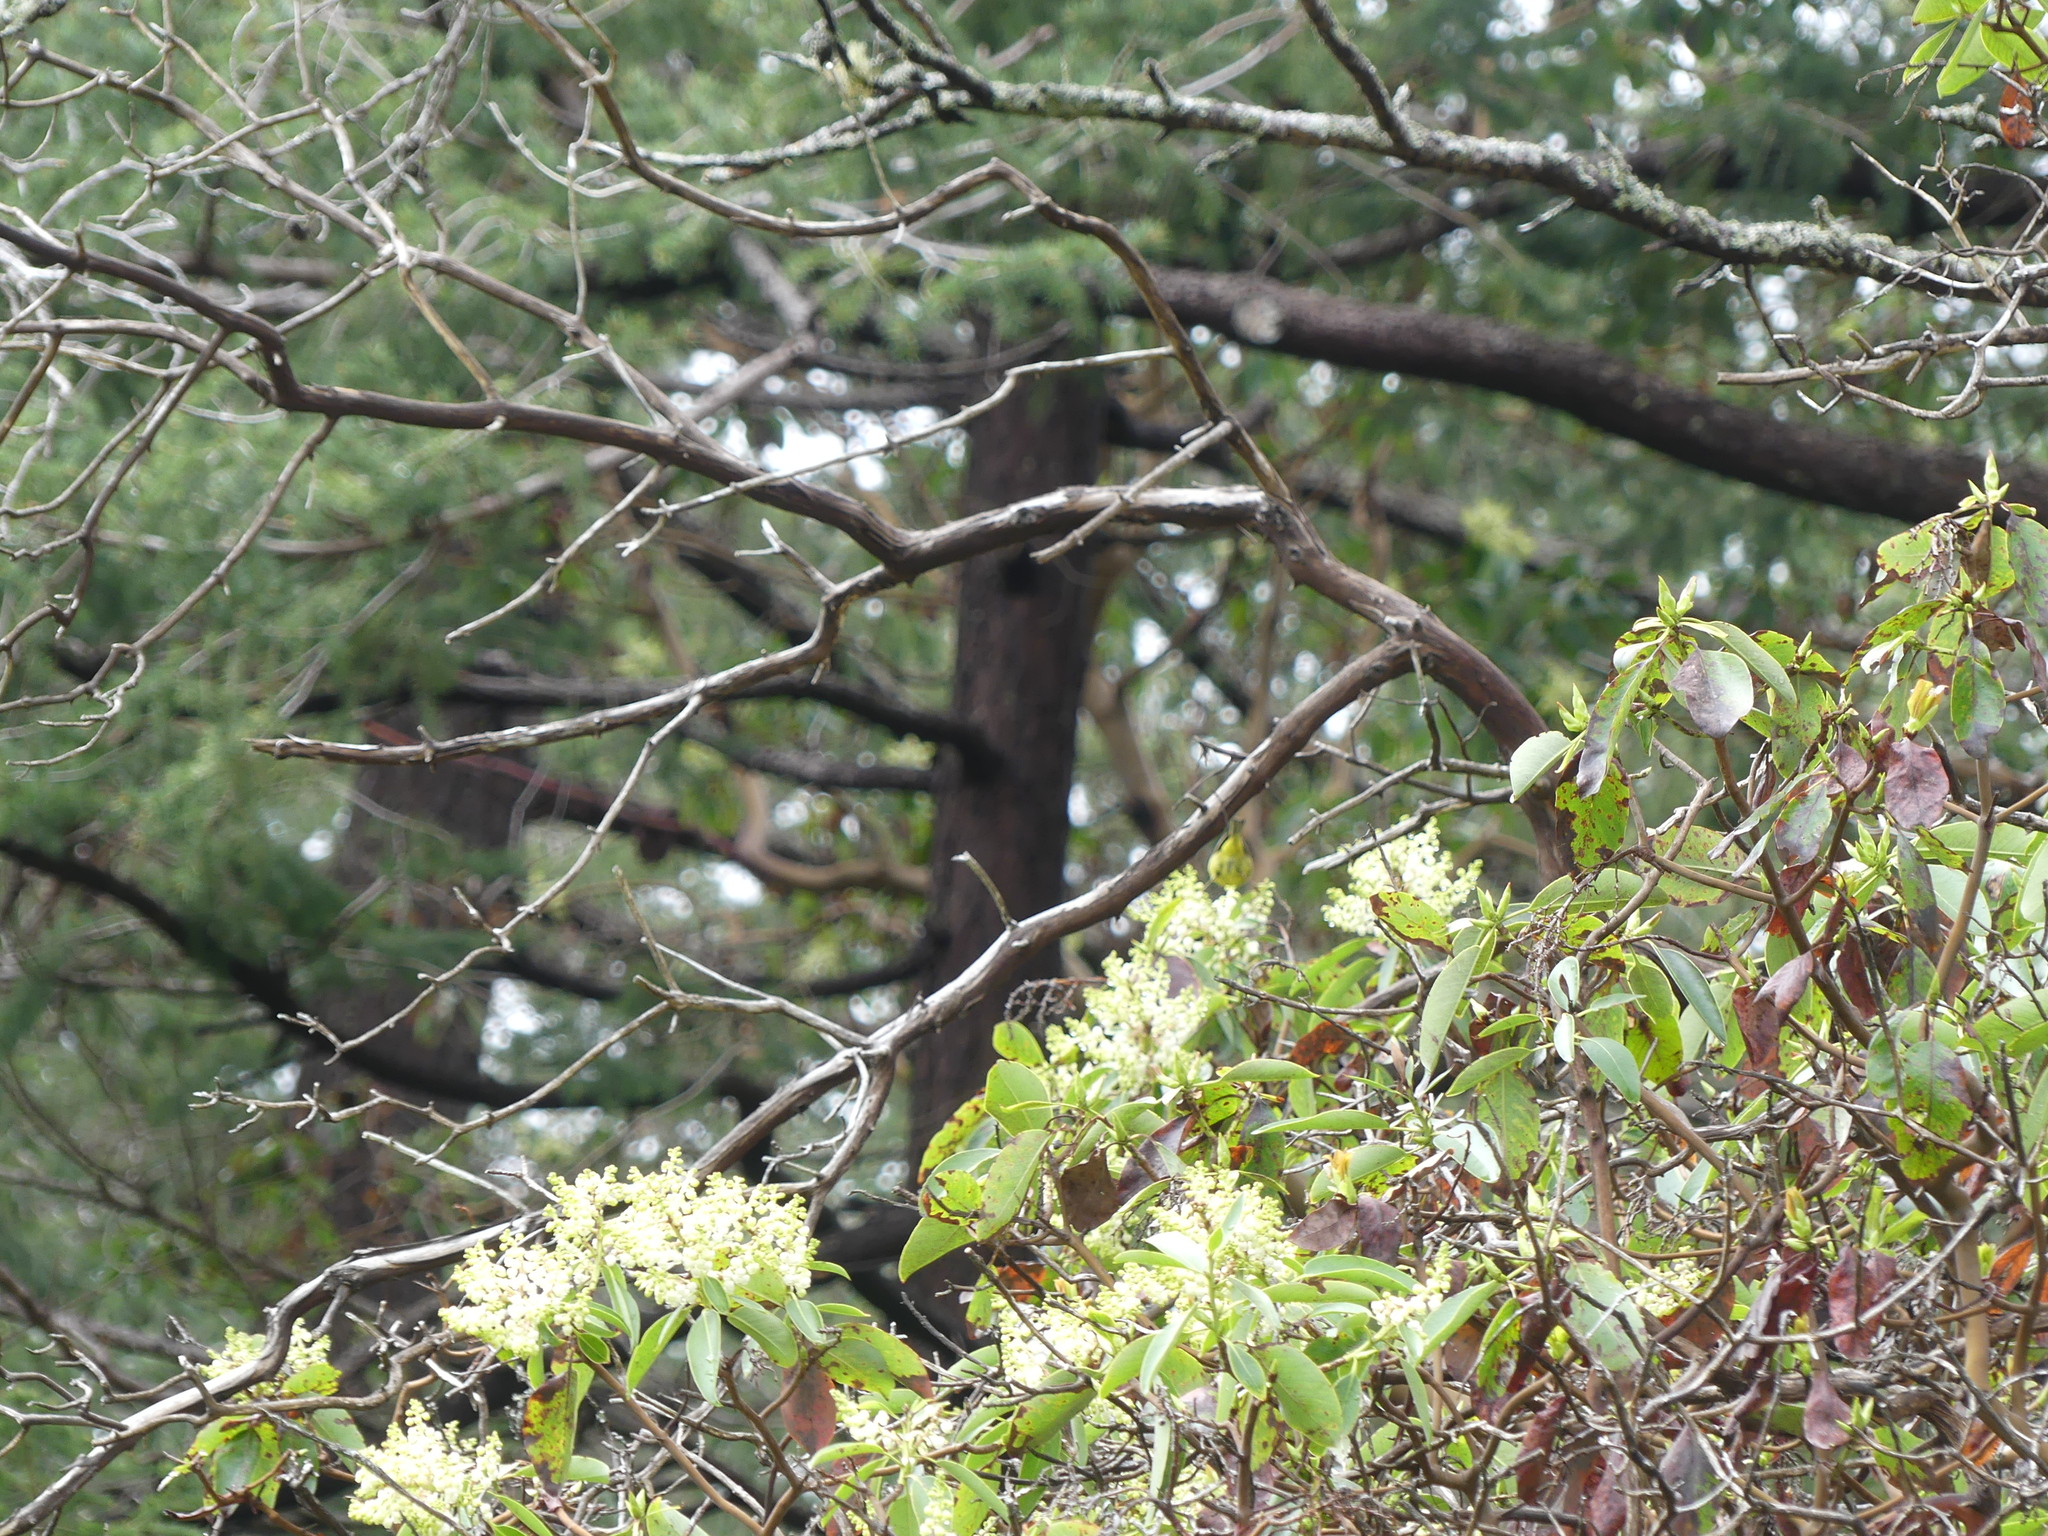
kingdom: Plantae
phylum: Tracheophyta
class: Magnoliopsida
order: Ericales
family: Ericaceae
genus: Arbutus
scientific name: Arbutus menziesii
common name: Pacific madrone
